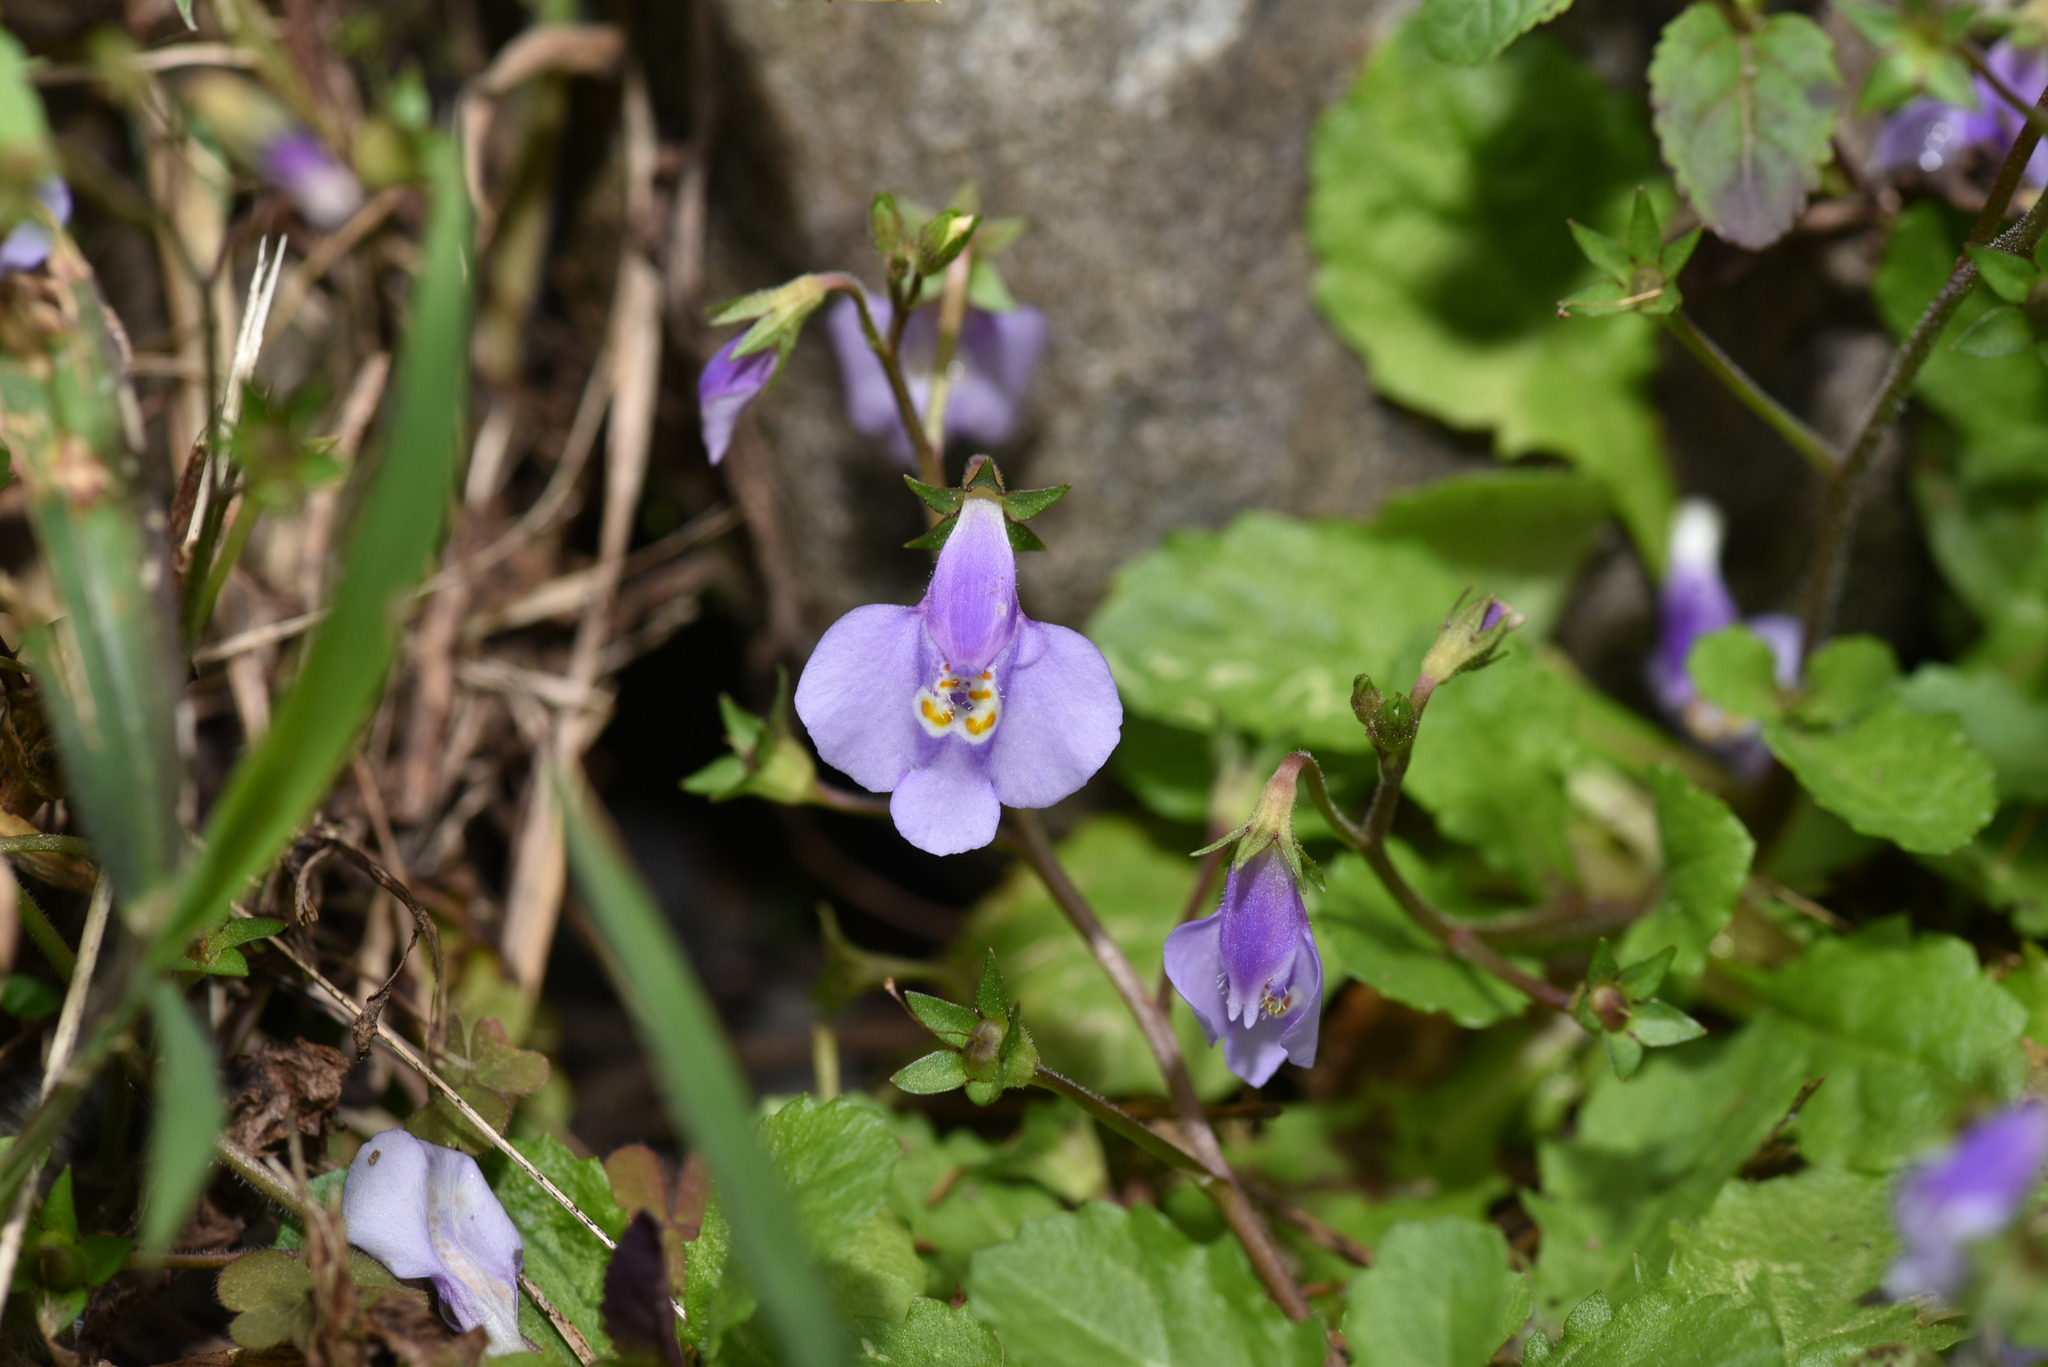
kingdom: Plantae
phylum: Tracheophyta
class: Magnoliopsida
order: Lamiales
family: Mazaceae
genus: Mazus
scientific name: Mazus pumilus
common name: Japanese mazus
